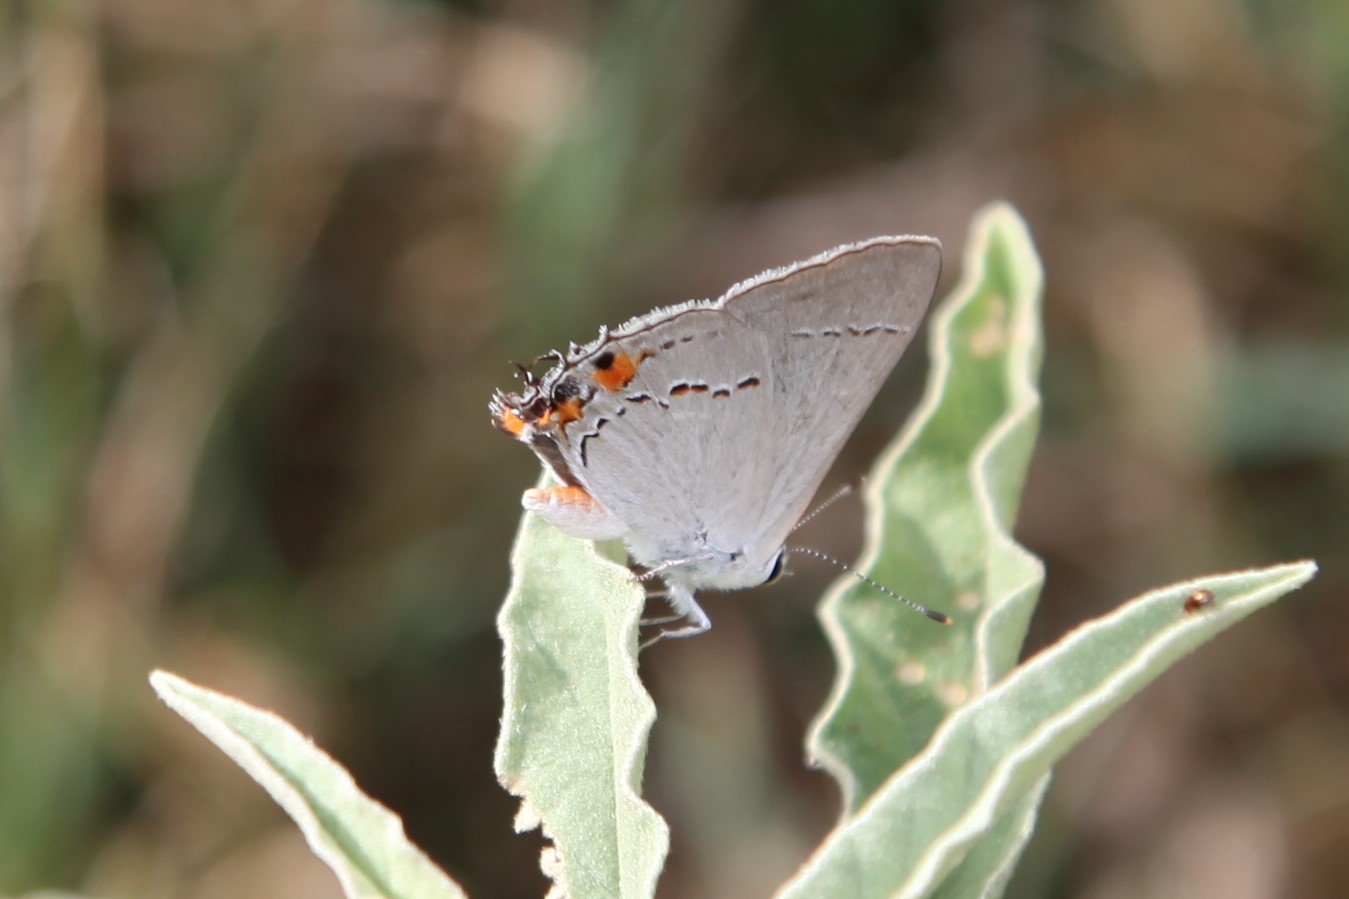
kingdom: Animalia
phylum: Arthropoda
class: Insecta
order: Lepidoptera
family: Lycaenidae
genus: Strymon
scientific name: Strymon melinus
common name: Gray hairstreak
